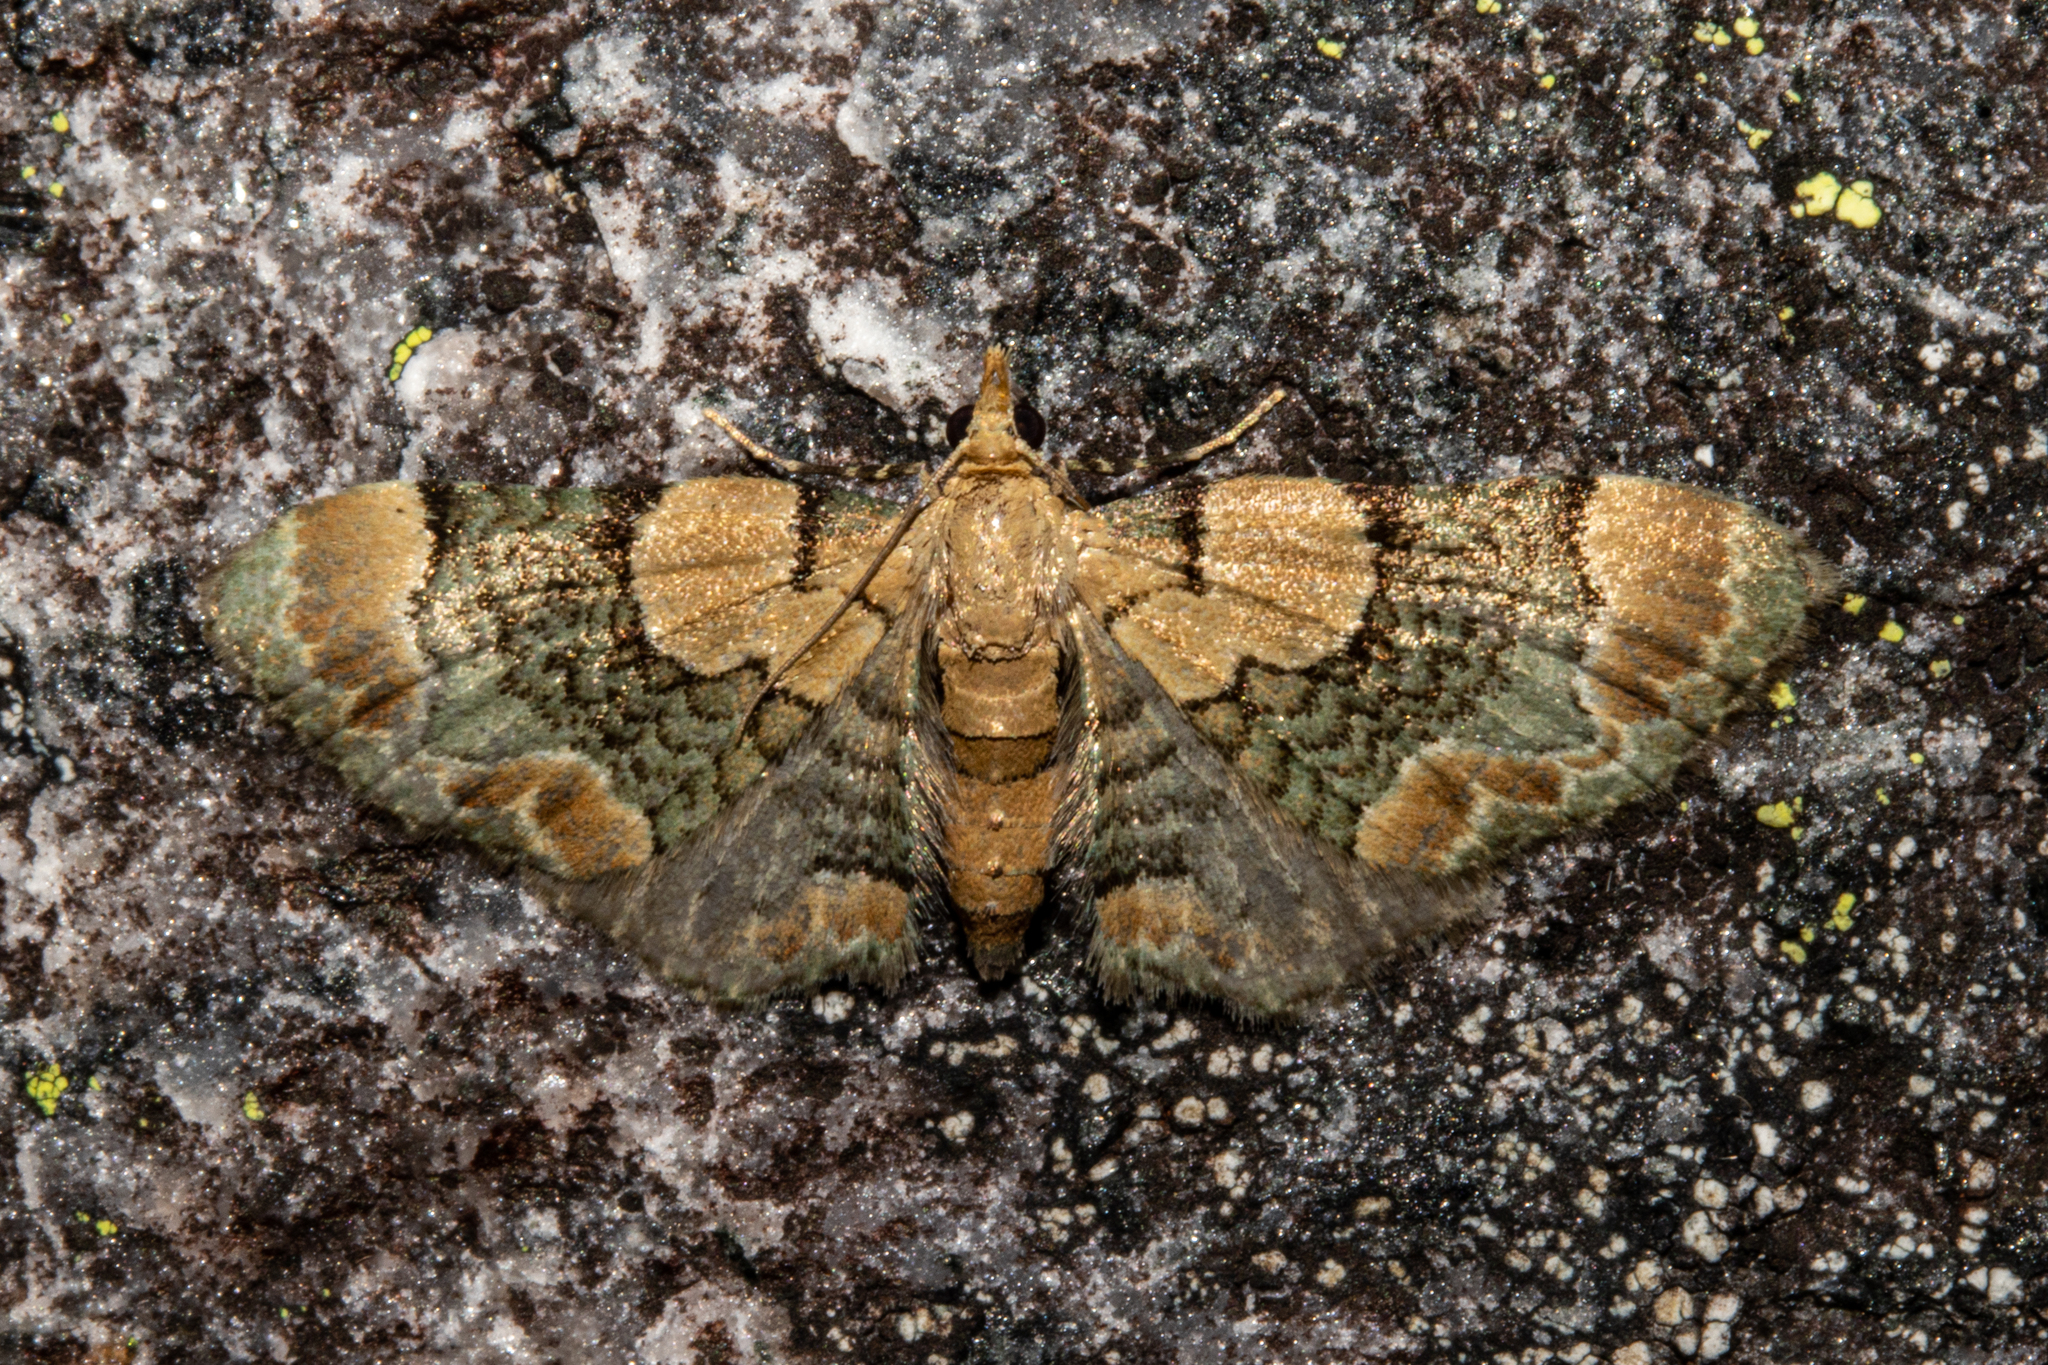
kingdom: Animalia
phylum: Arthropoda
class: Insecta
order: Lepidoptera
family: Geometridae
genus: Chloroclystis
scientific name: Chloroclystis
